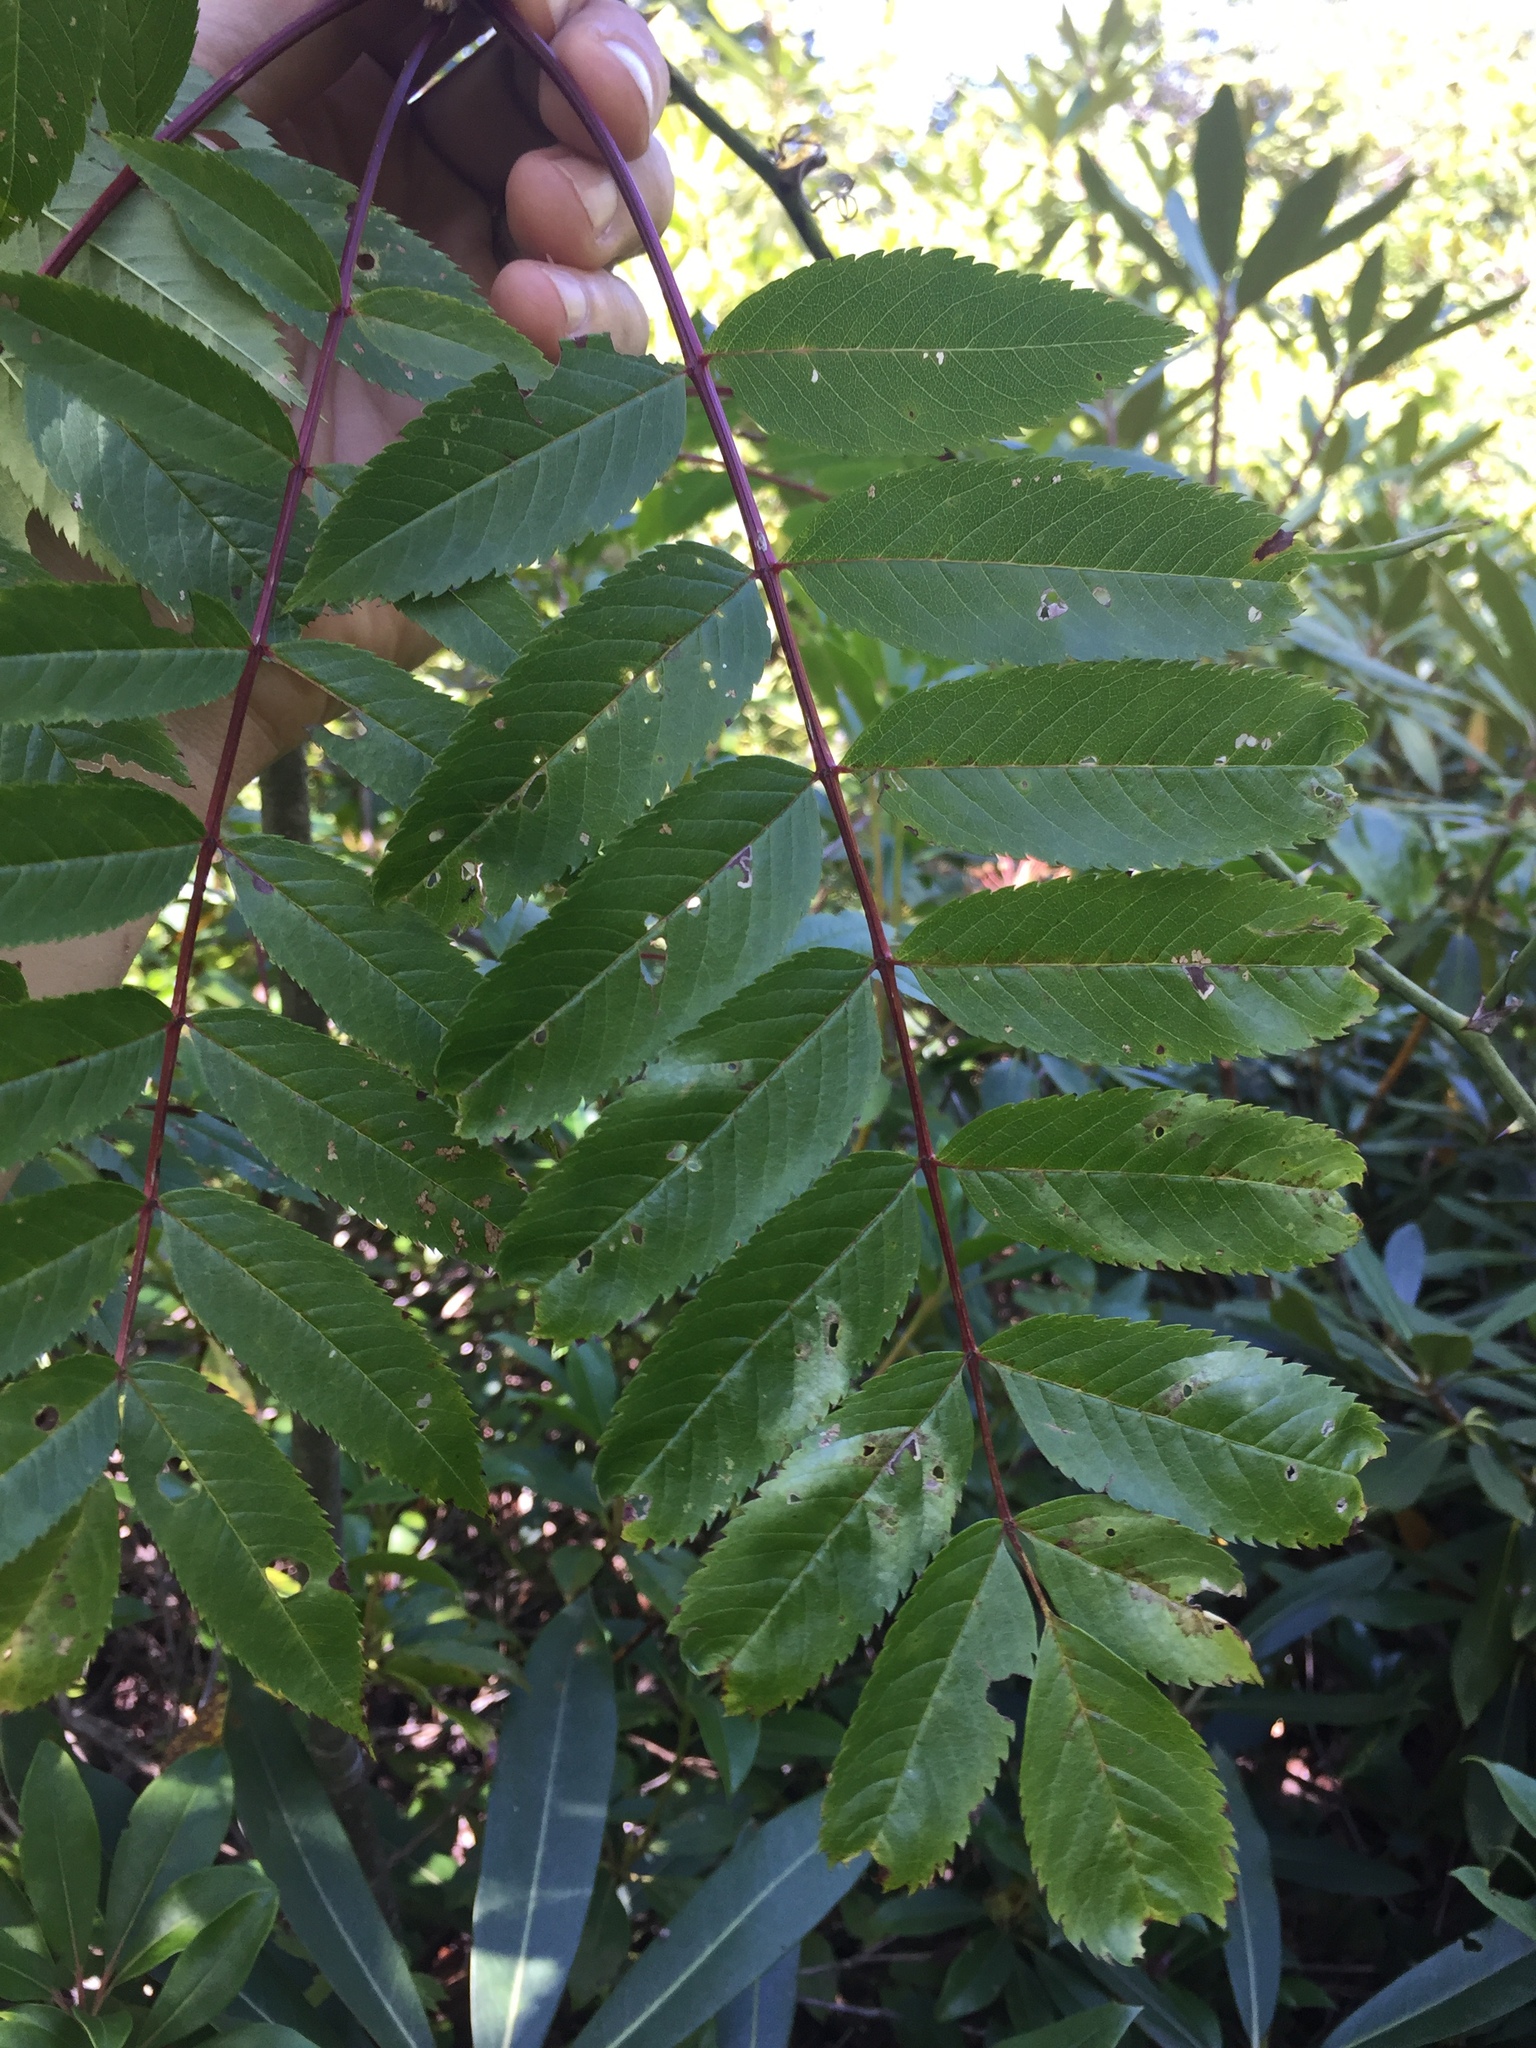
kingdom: Plantae
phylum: Tracheophyta
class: Magnoliopsida
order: Rosales
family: Rosaceae
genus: Sorbus
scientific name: Sorbus americana
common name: American mountain-ash
